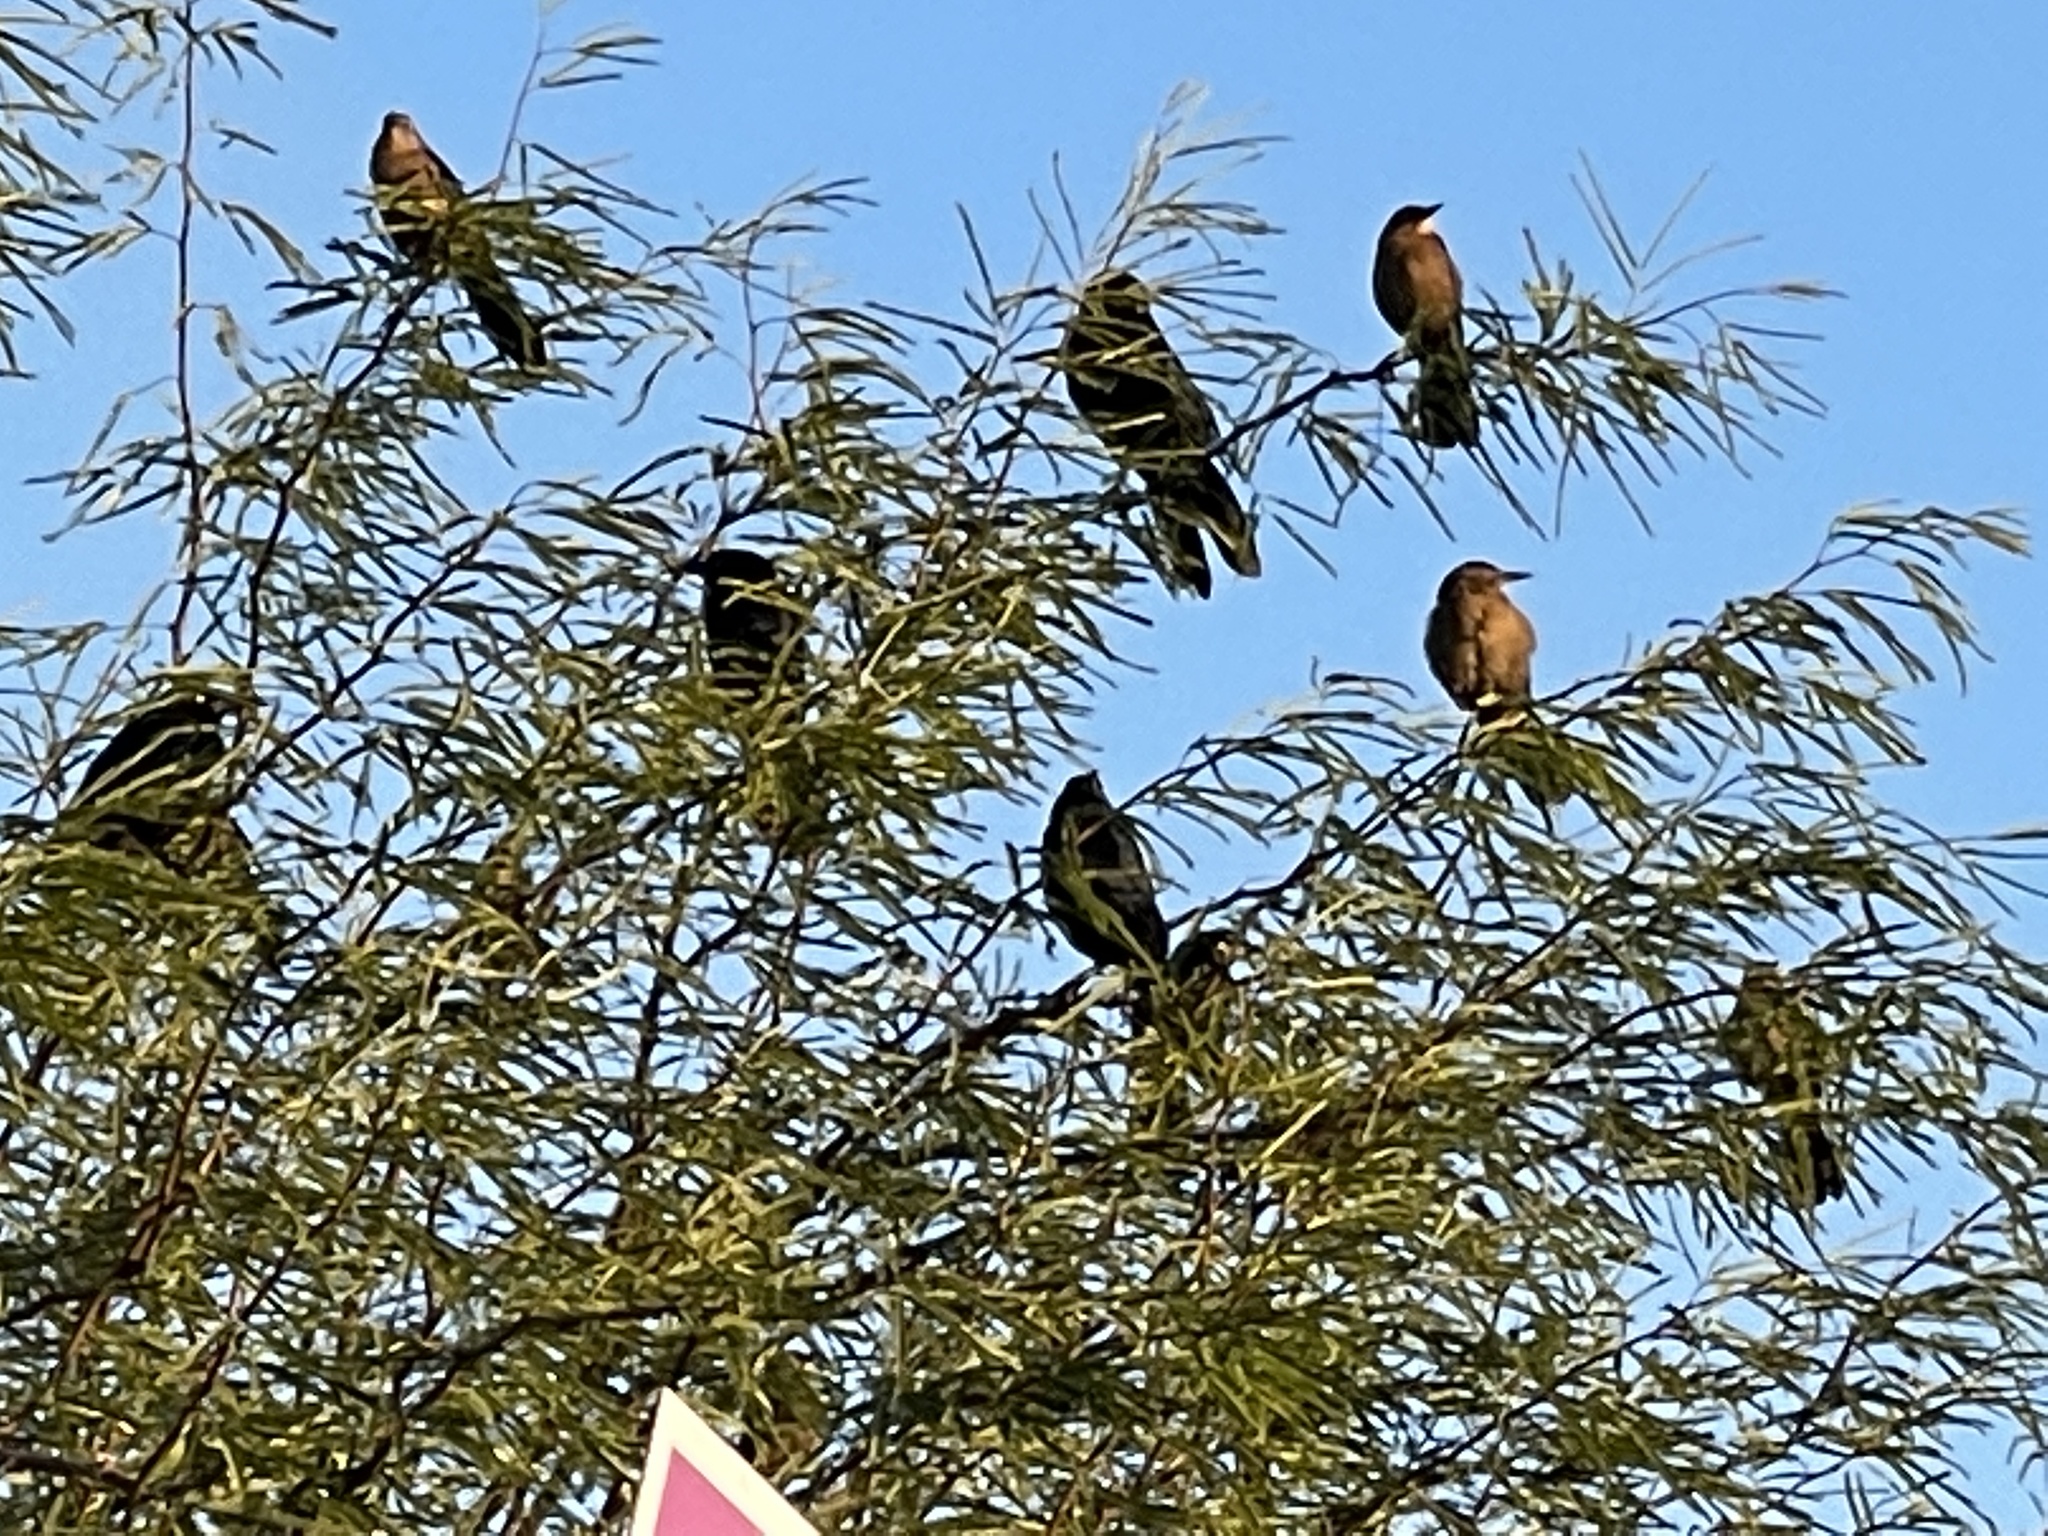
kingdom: Animalia
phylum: Chordata
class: Aves
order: Passeriformes
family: Icteridae
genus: Quiscalus
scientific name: Quiscalus mexicanus
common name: Great-tailed grackle
